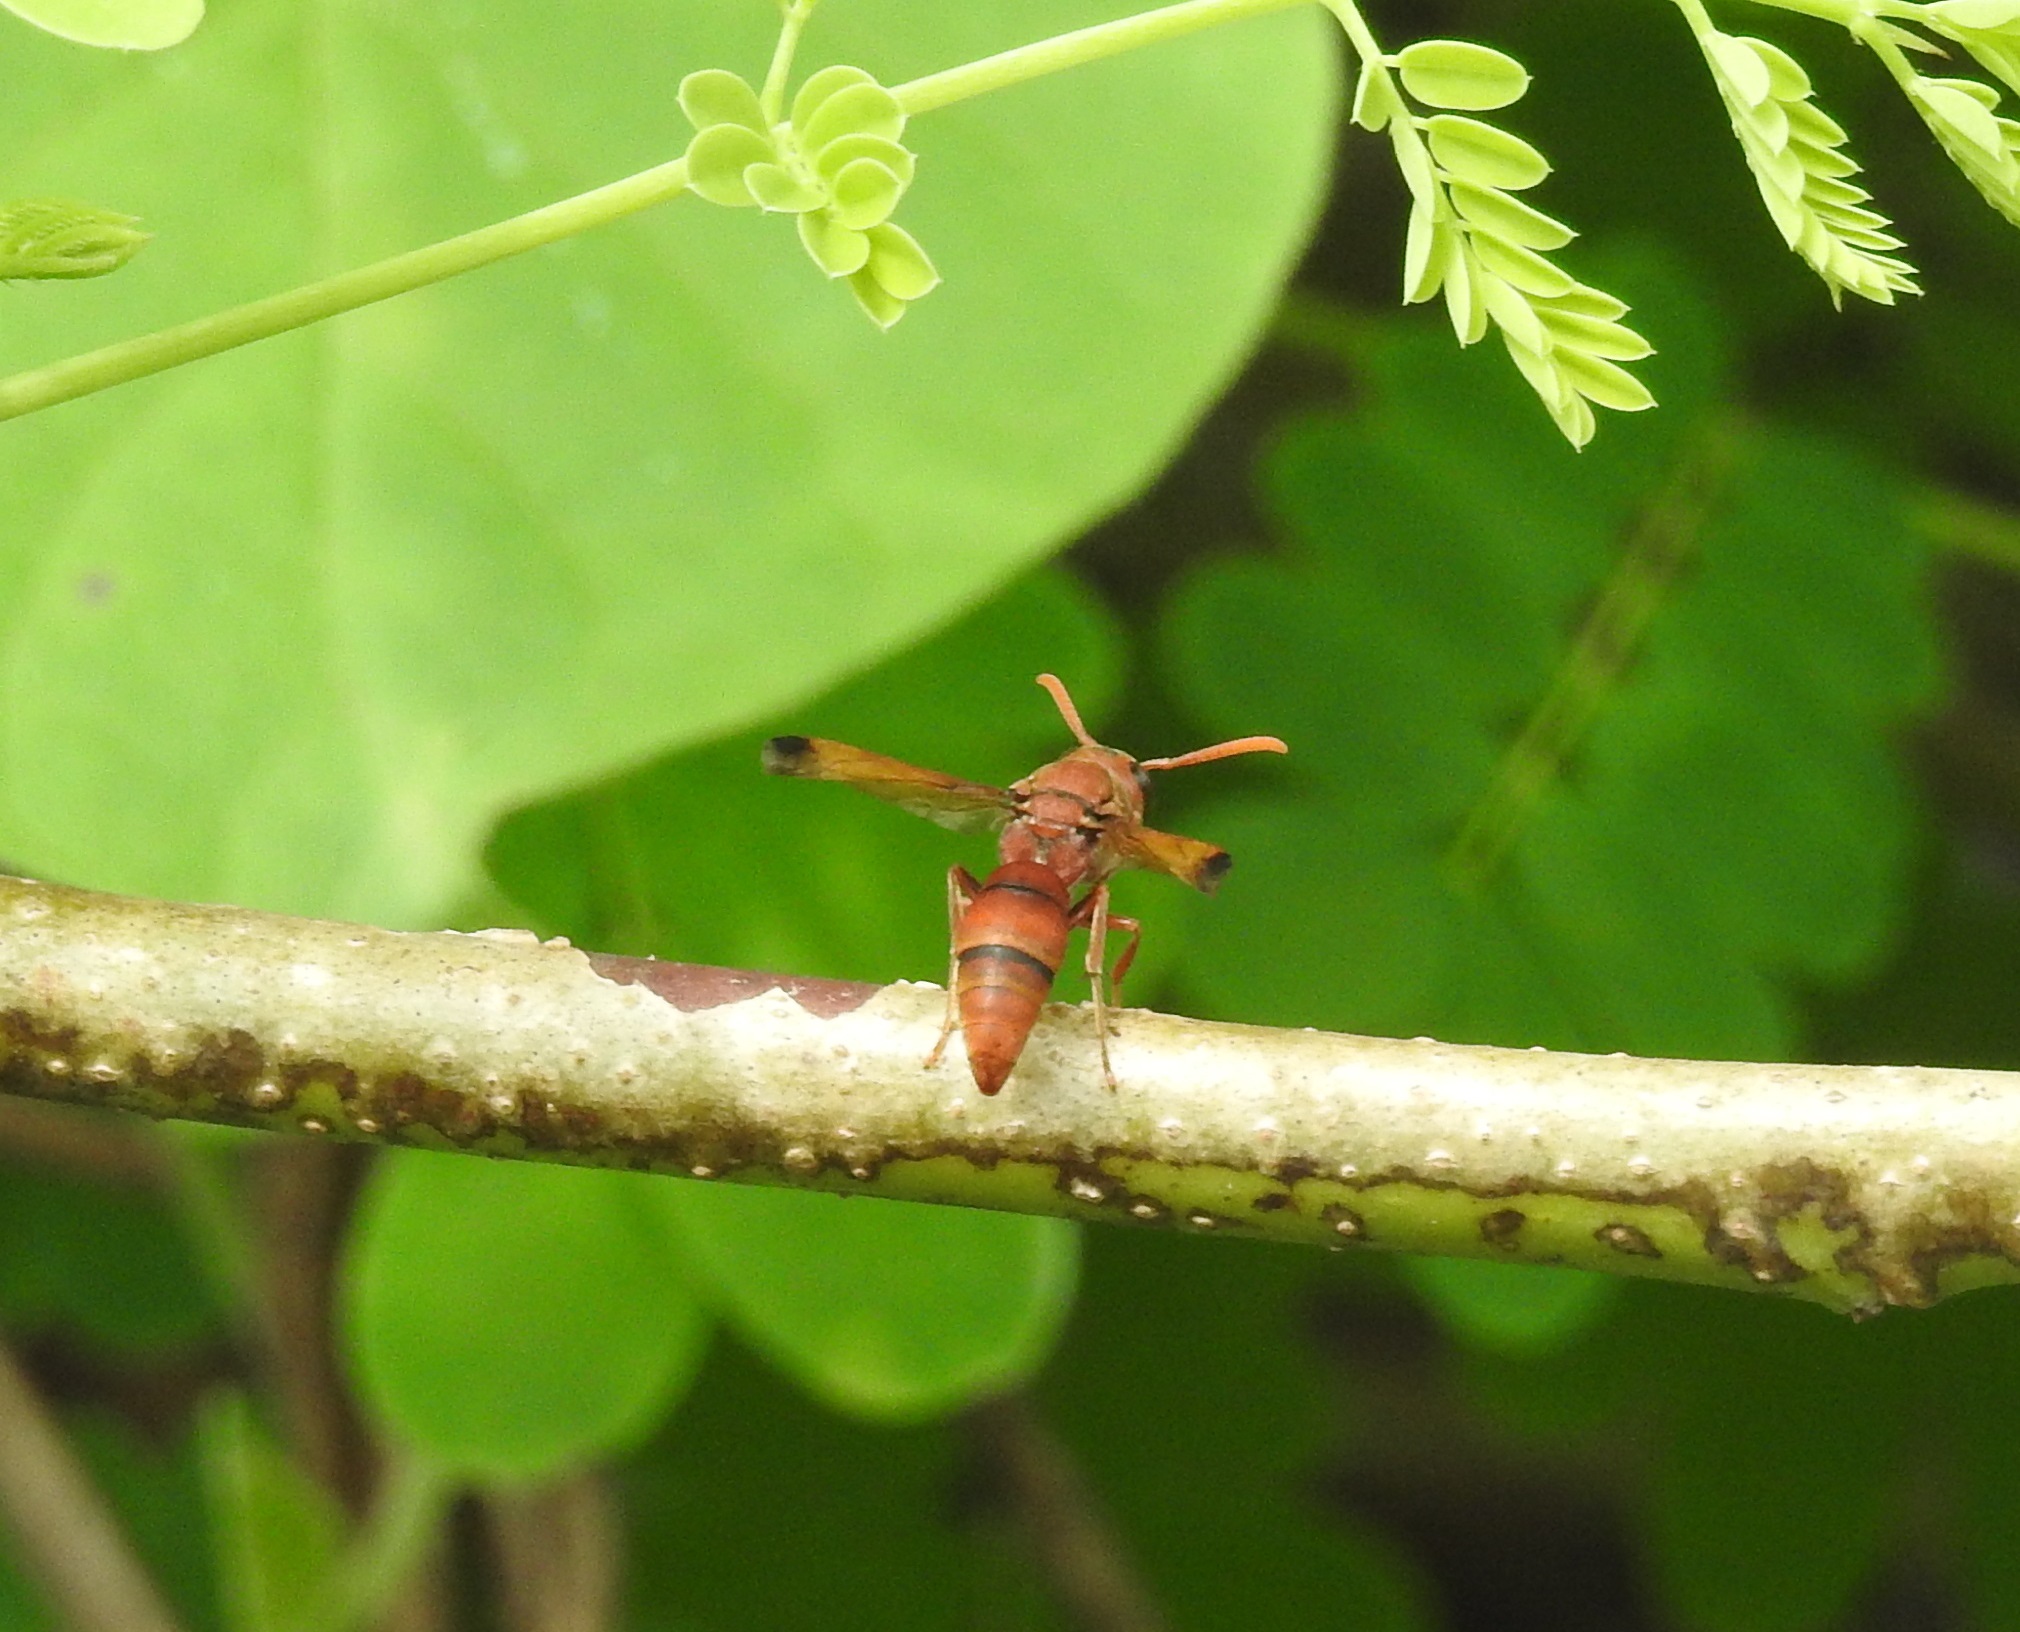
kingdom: Animalia
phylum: Arthropoda
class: Insecta
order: Hymenoptera
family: Eumenidae
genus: Antodynerus
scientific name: Antodynerus limbatus
